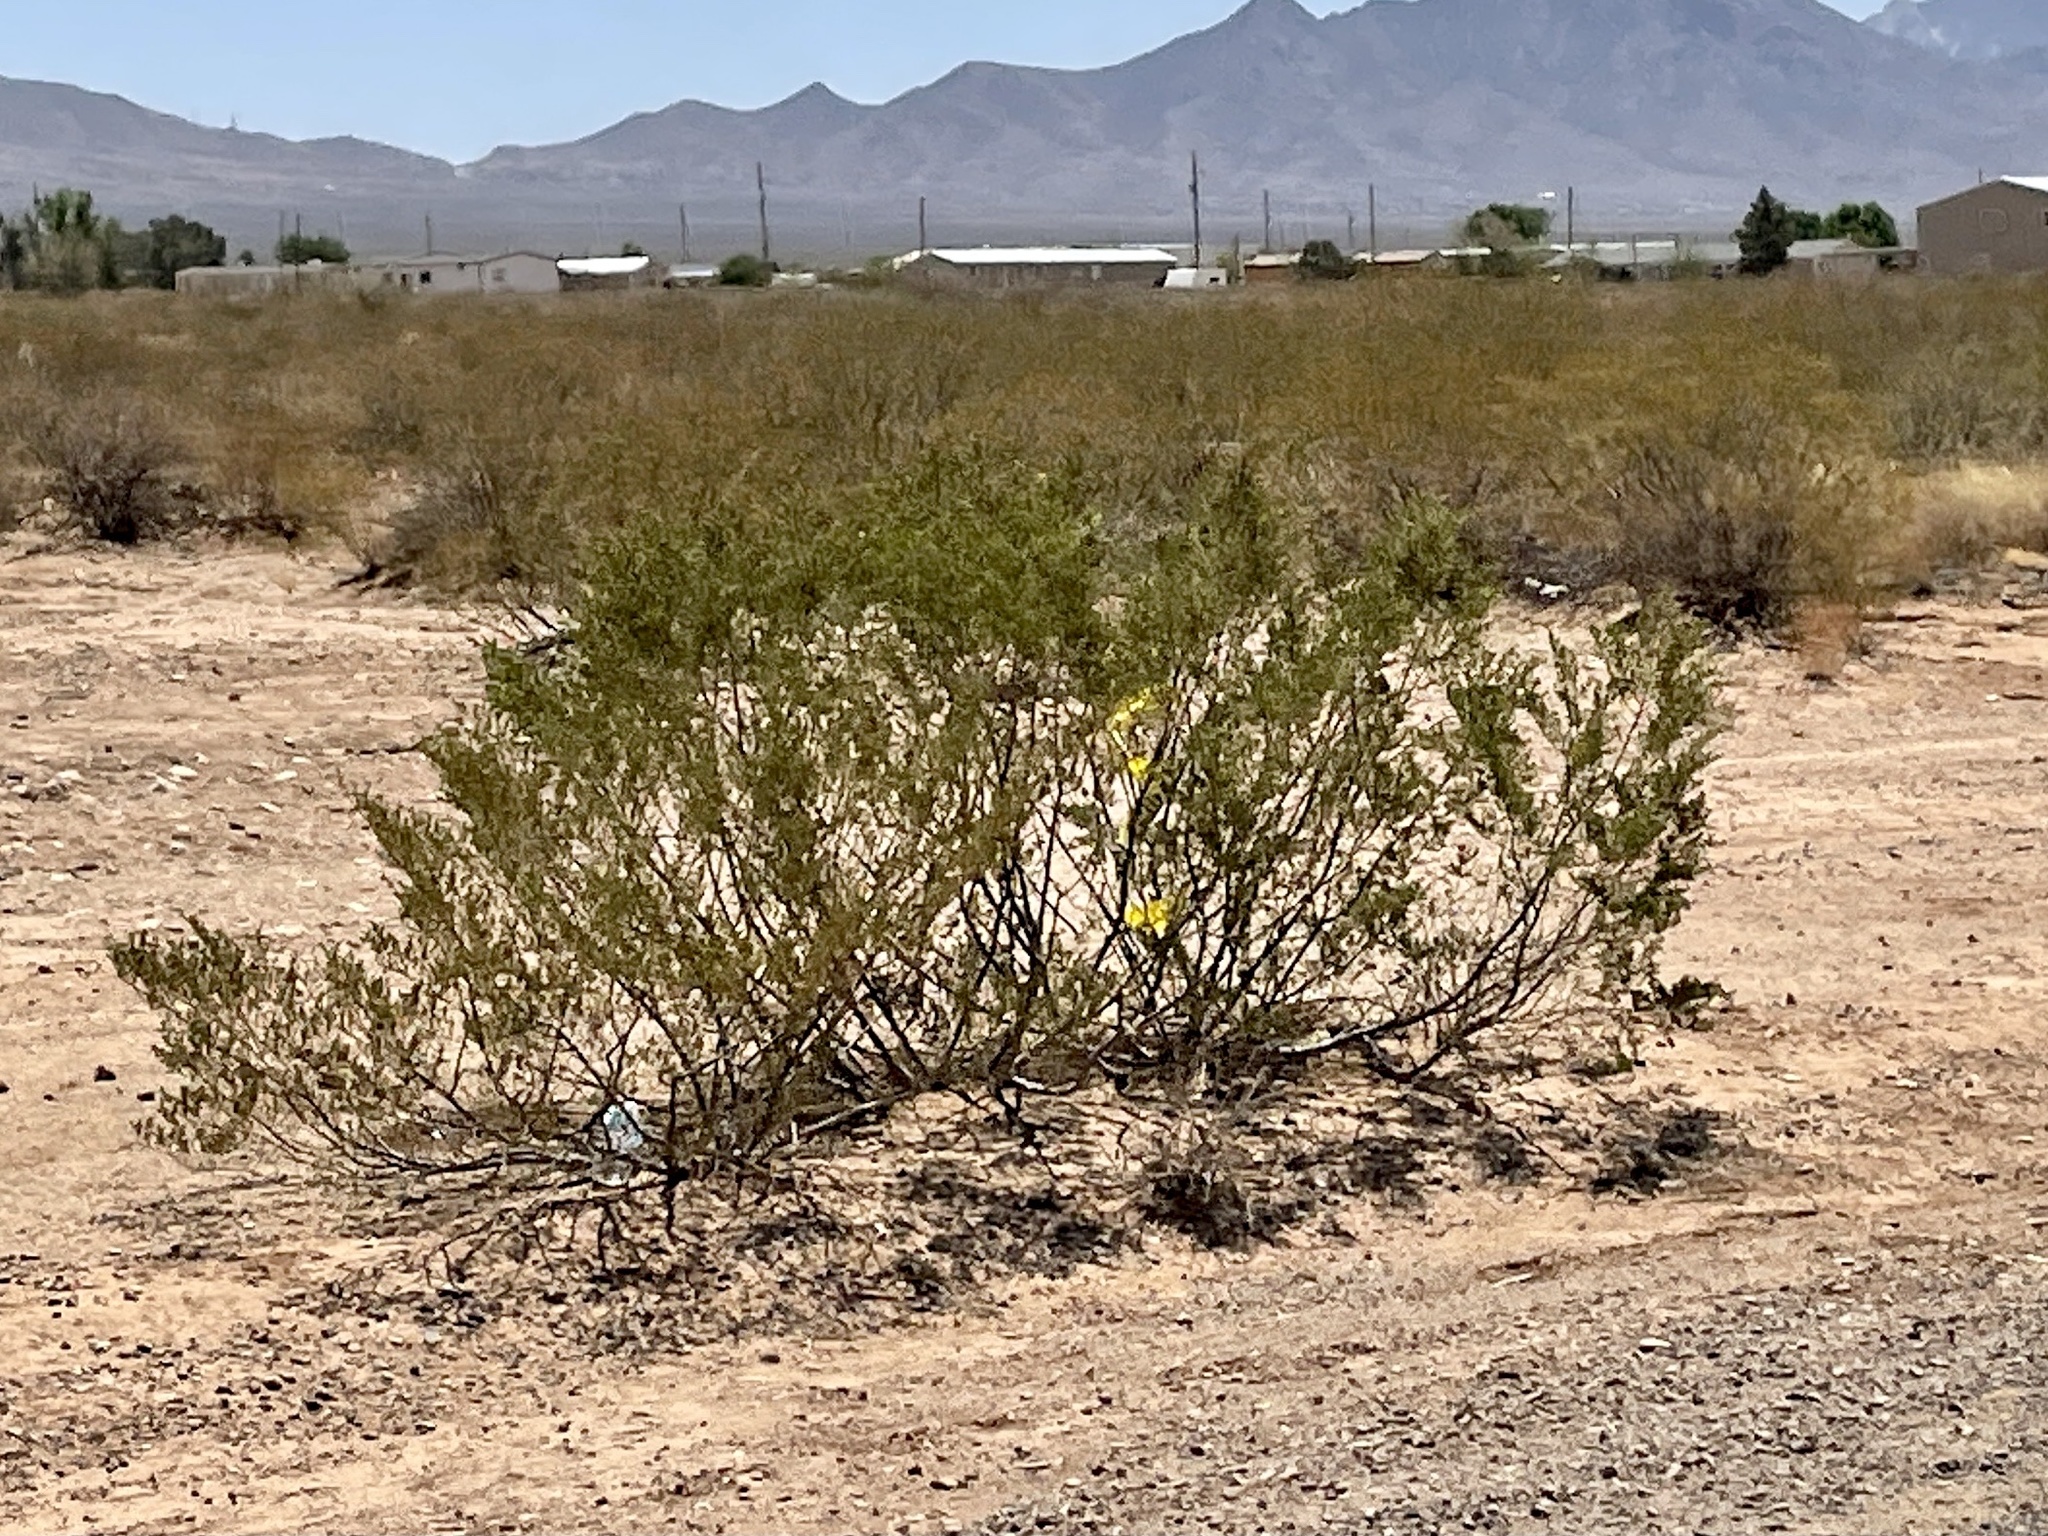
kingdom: Plantae
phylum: Tracheophyta
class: Magnoliopsida
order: Zygophyllales
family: Zygophyllaceae
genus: Larrea
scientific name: Larrea tridentata
